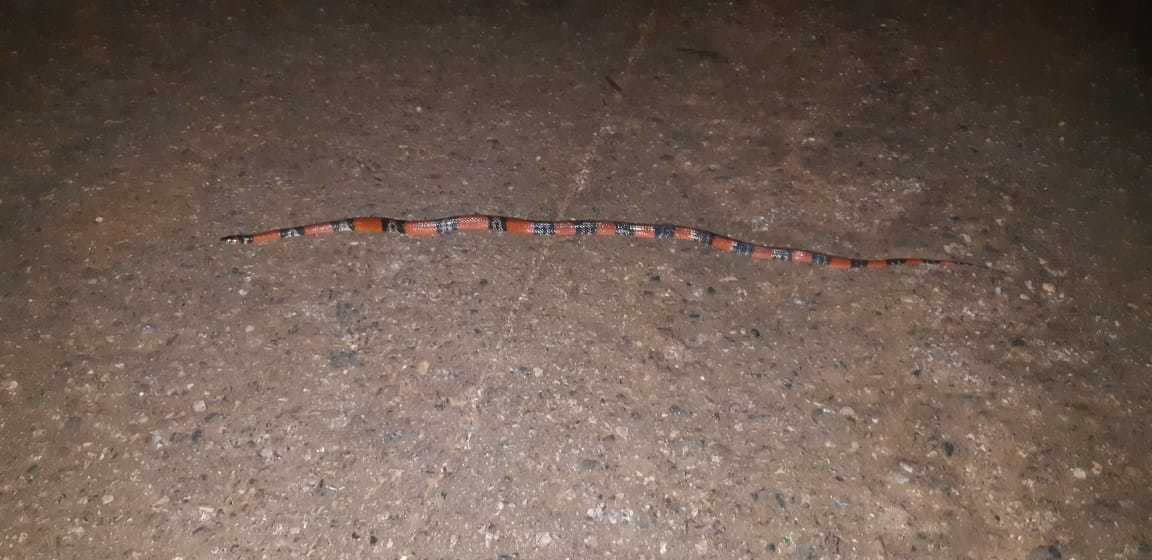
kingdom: Animalia
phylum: Chordata
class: Squamata
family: Colubridae
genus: Erythrolamprus
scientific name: Erythrolamprus aesculapii
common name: Aesculapian false coral snake
